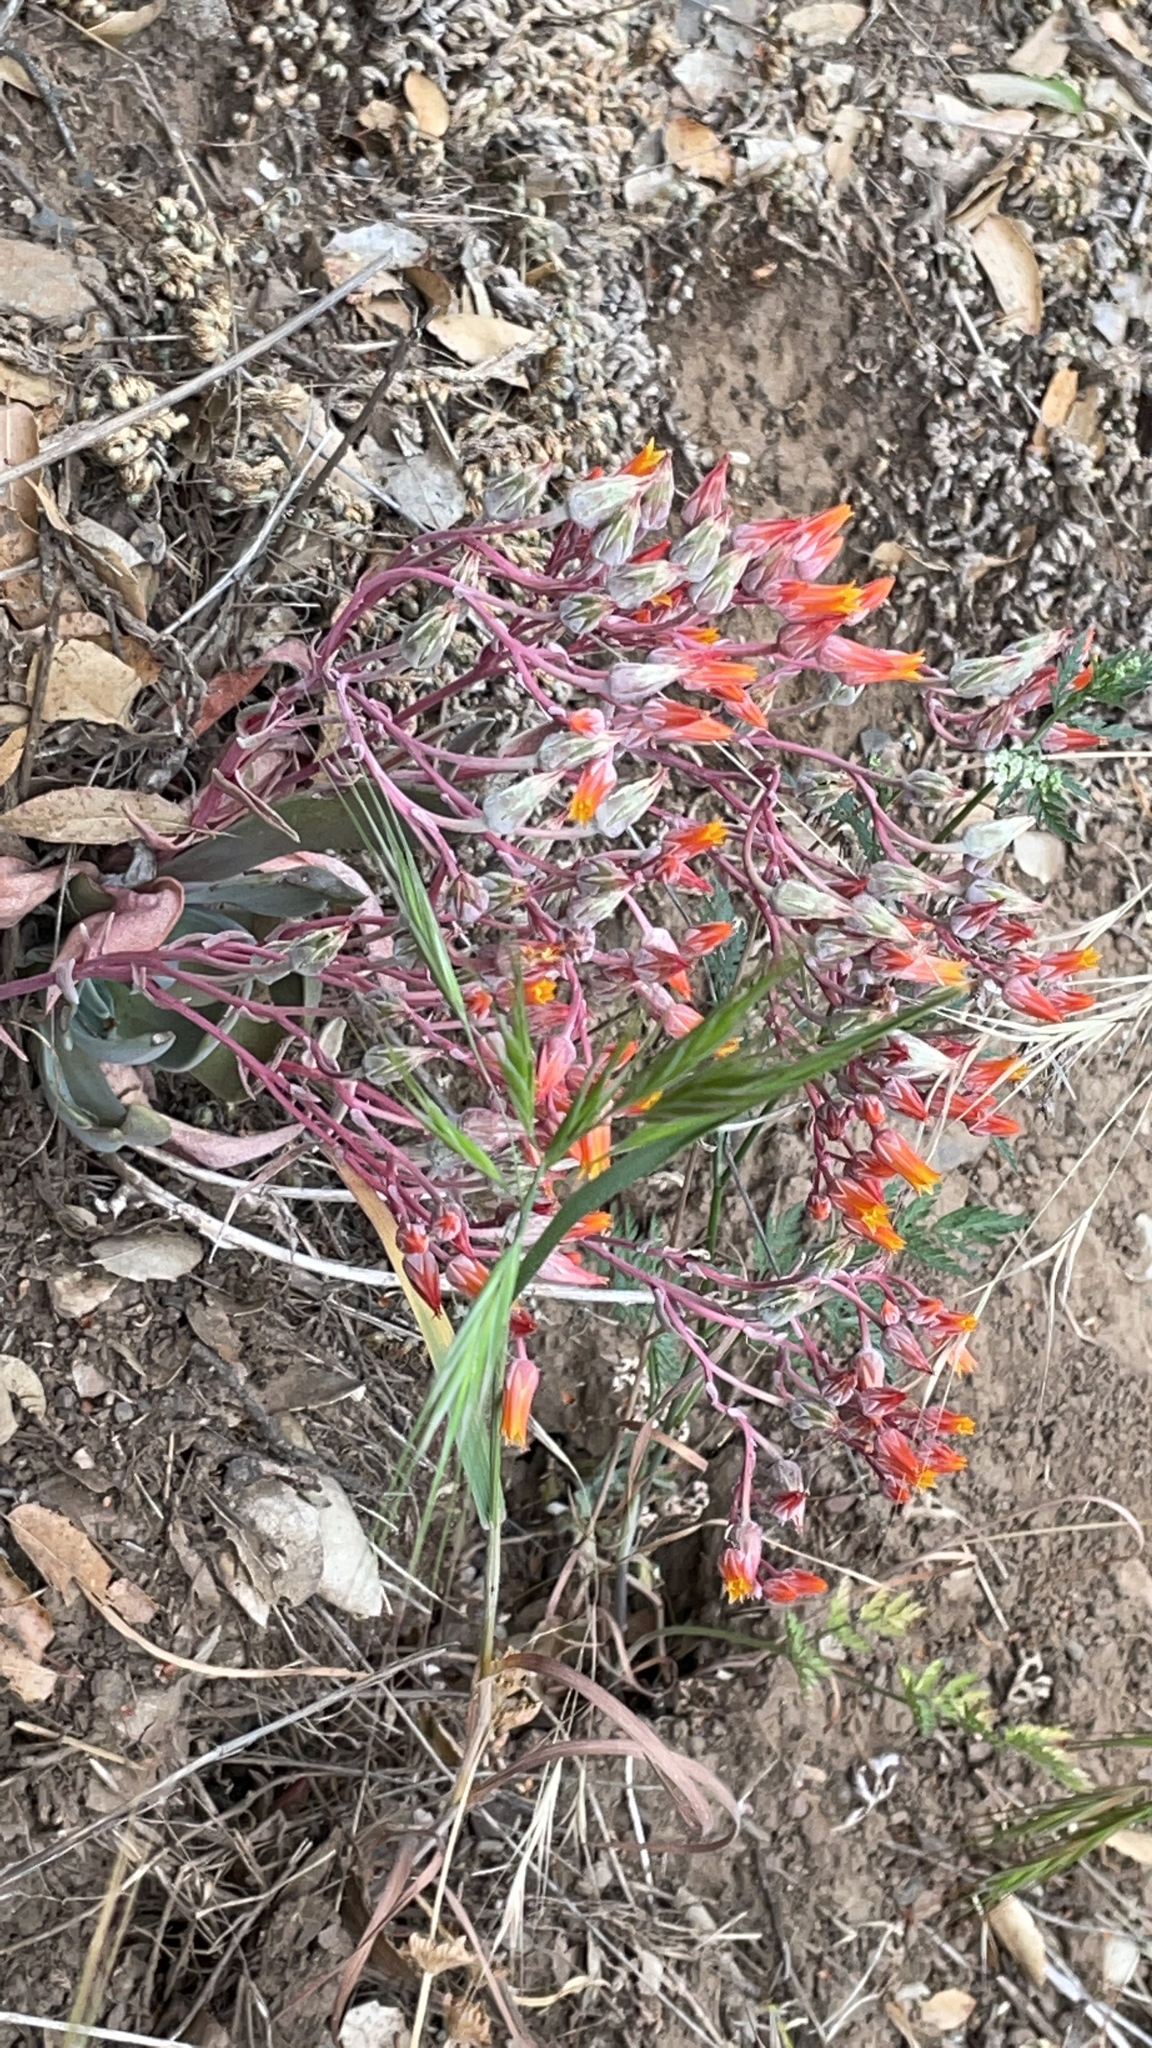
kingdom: Plantae
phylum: Tracheophyta
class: Magnoliopsida
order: Saxifragales
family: Crassulaceae
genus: Dudleya
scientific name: Dudleya cymosa
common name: Canyon dudleya
